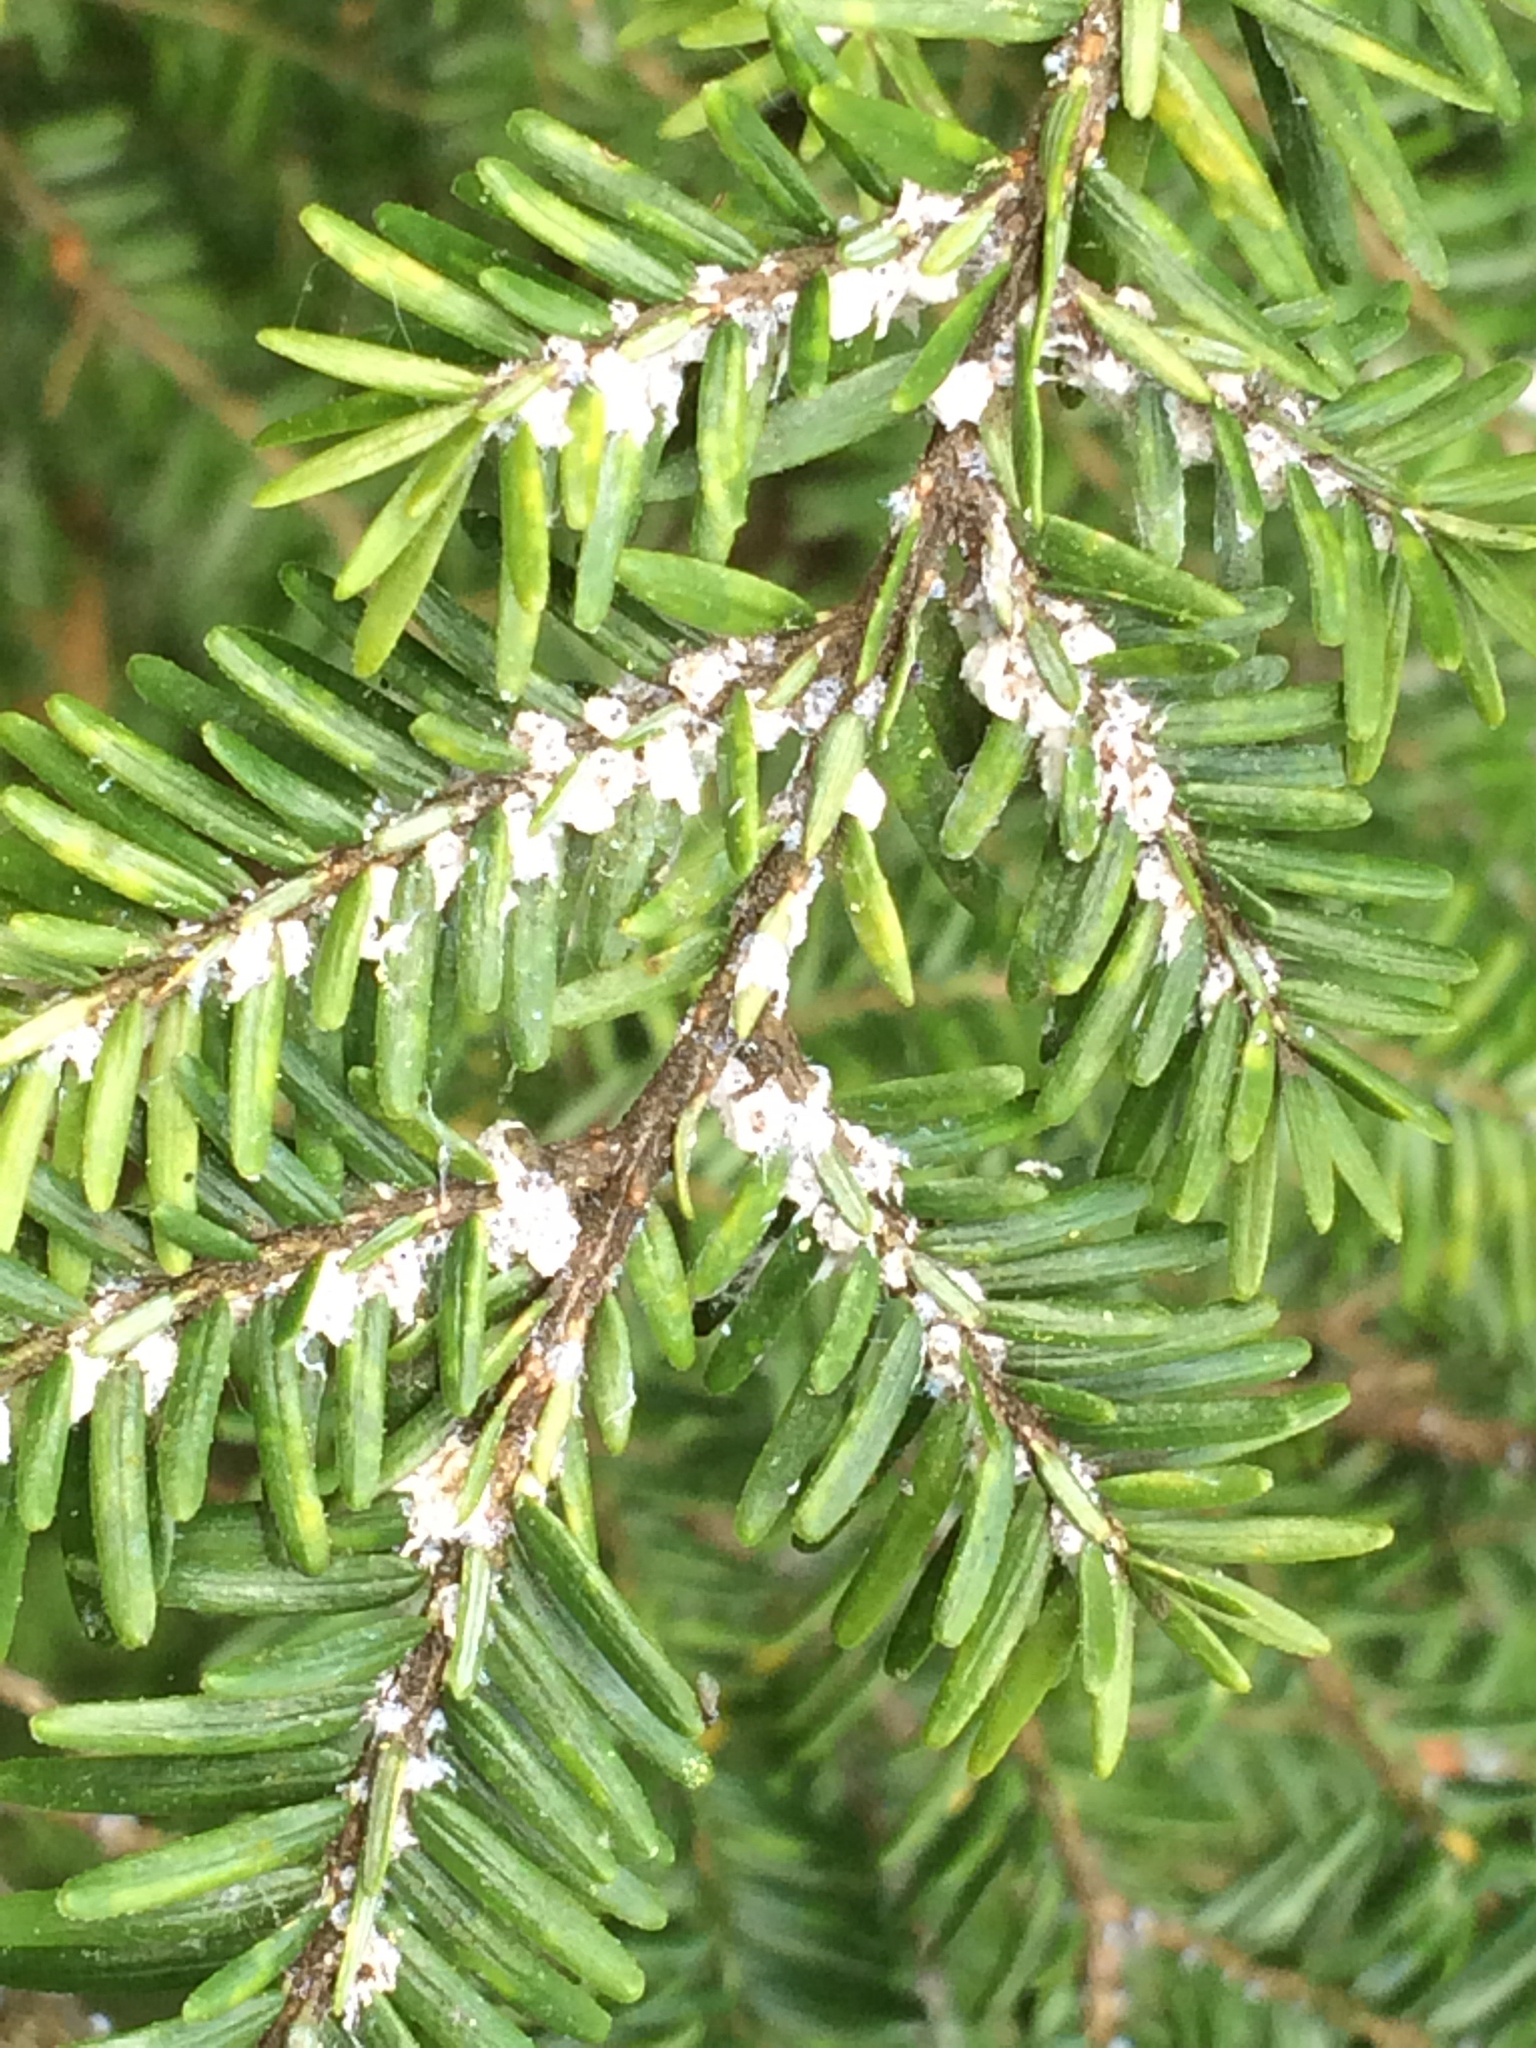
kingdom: Animalia
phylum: Arthropoda
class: Insecta
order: Hemiptera
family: Adelgidae
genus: Adelges
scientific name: Adelges tsugae
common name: Hemlock woolly adelgid
